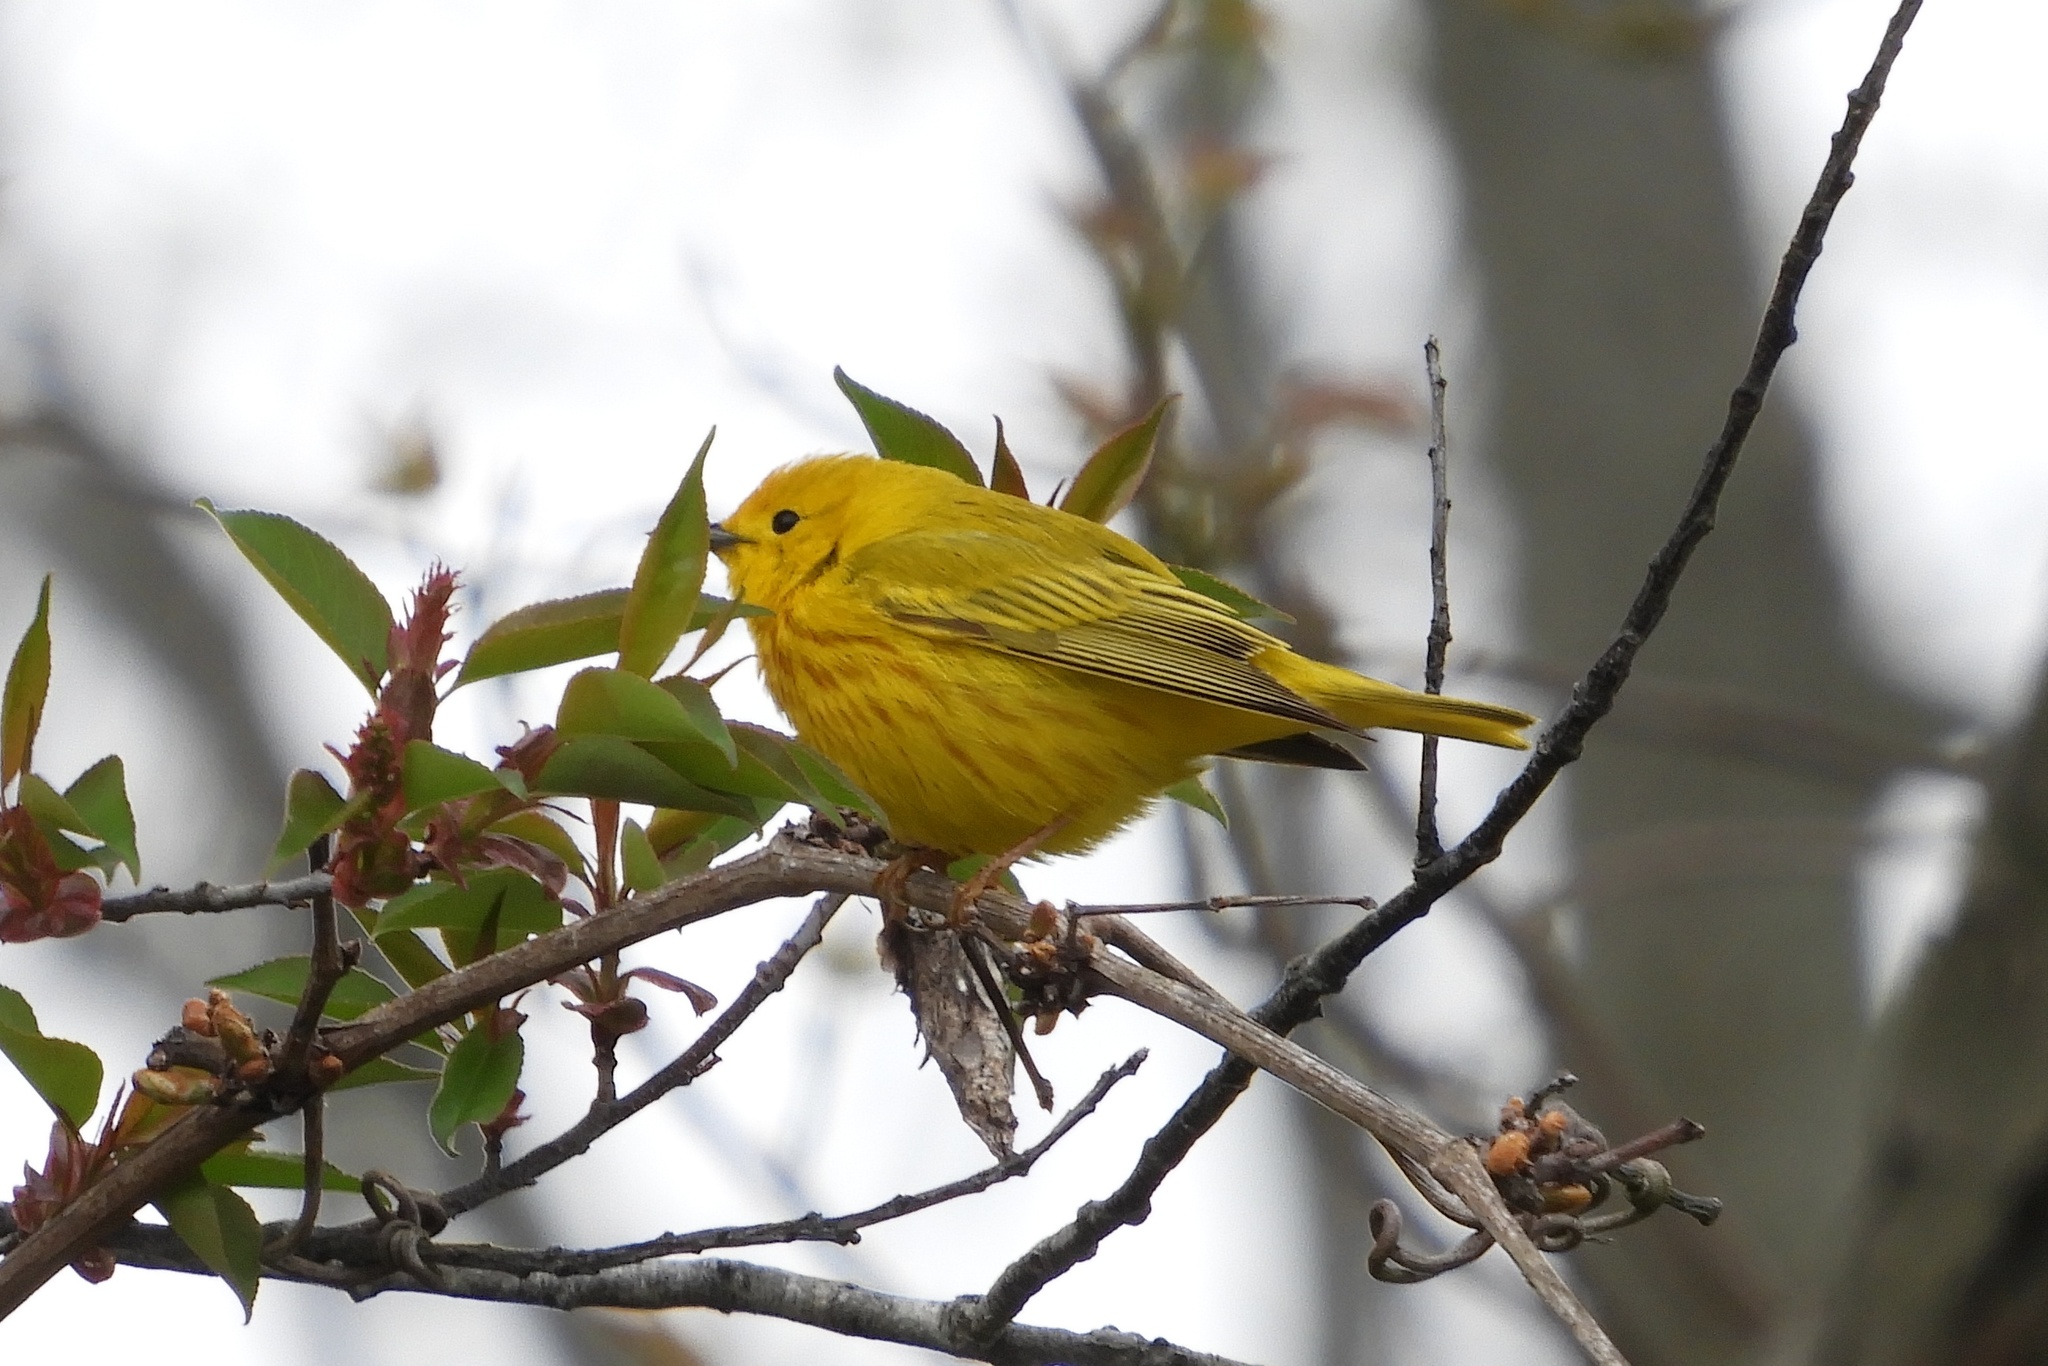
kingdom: Animalia
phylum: Chordata
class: Aves
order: Passeriformes
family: Parulidae
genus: Setophaga
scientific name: Setophaga petechia
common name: Yellow warbler
